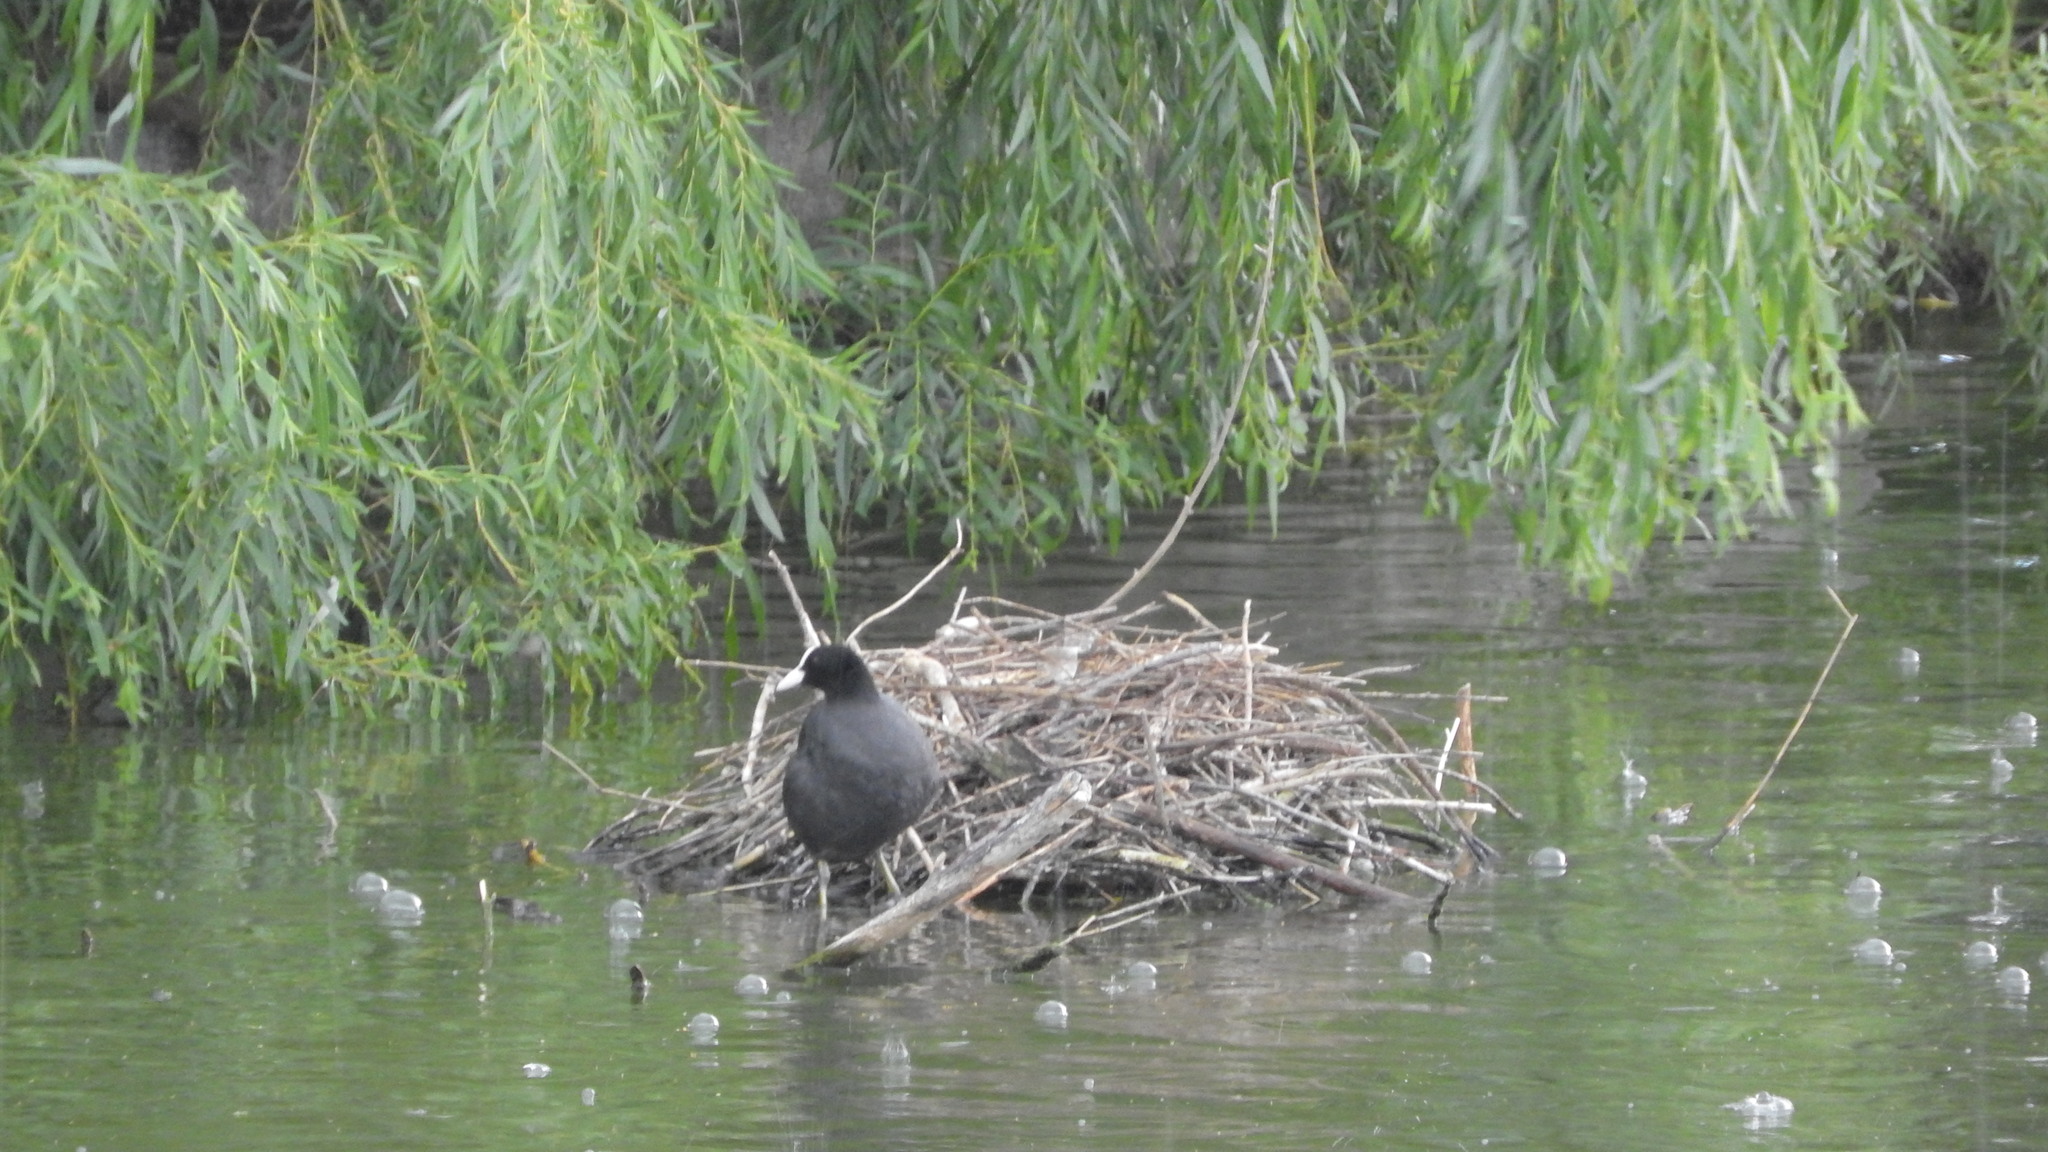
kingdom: Animalia
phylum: Chordata
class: Aves
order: Gruiformes
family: Rallidae
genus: Fulica
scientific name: Fulica atra
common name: Eurasian coot
